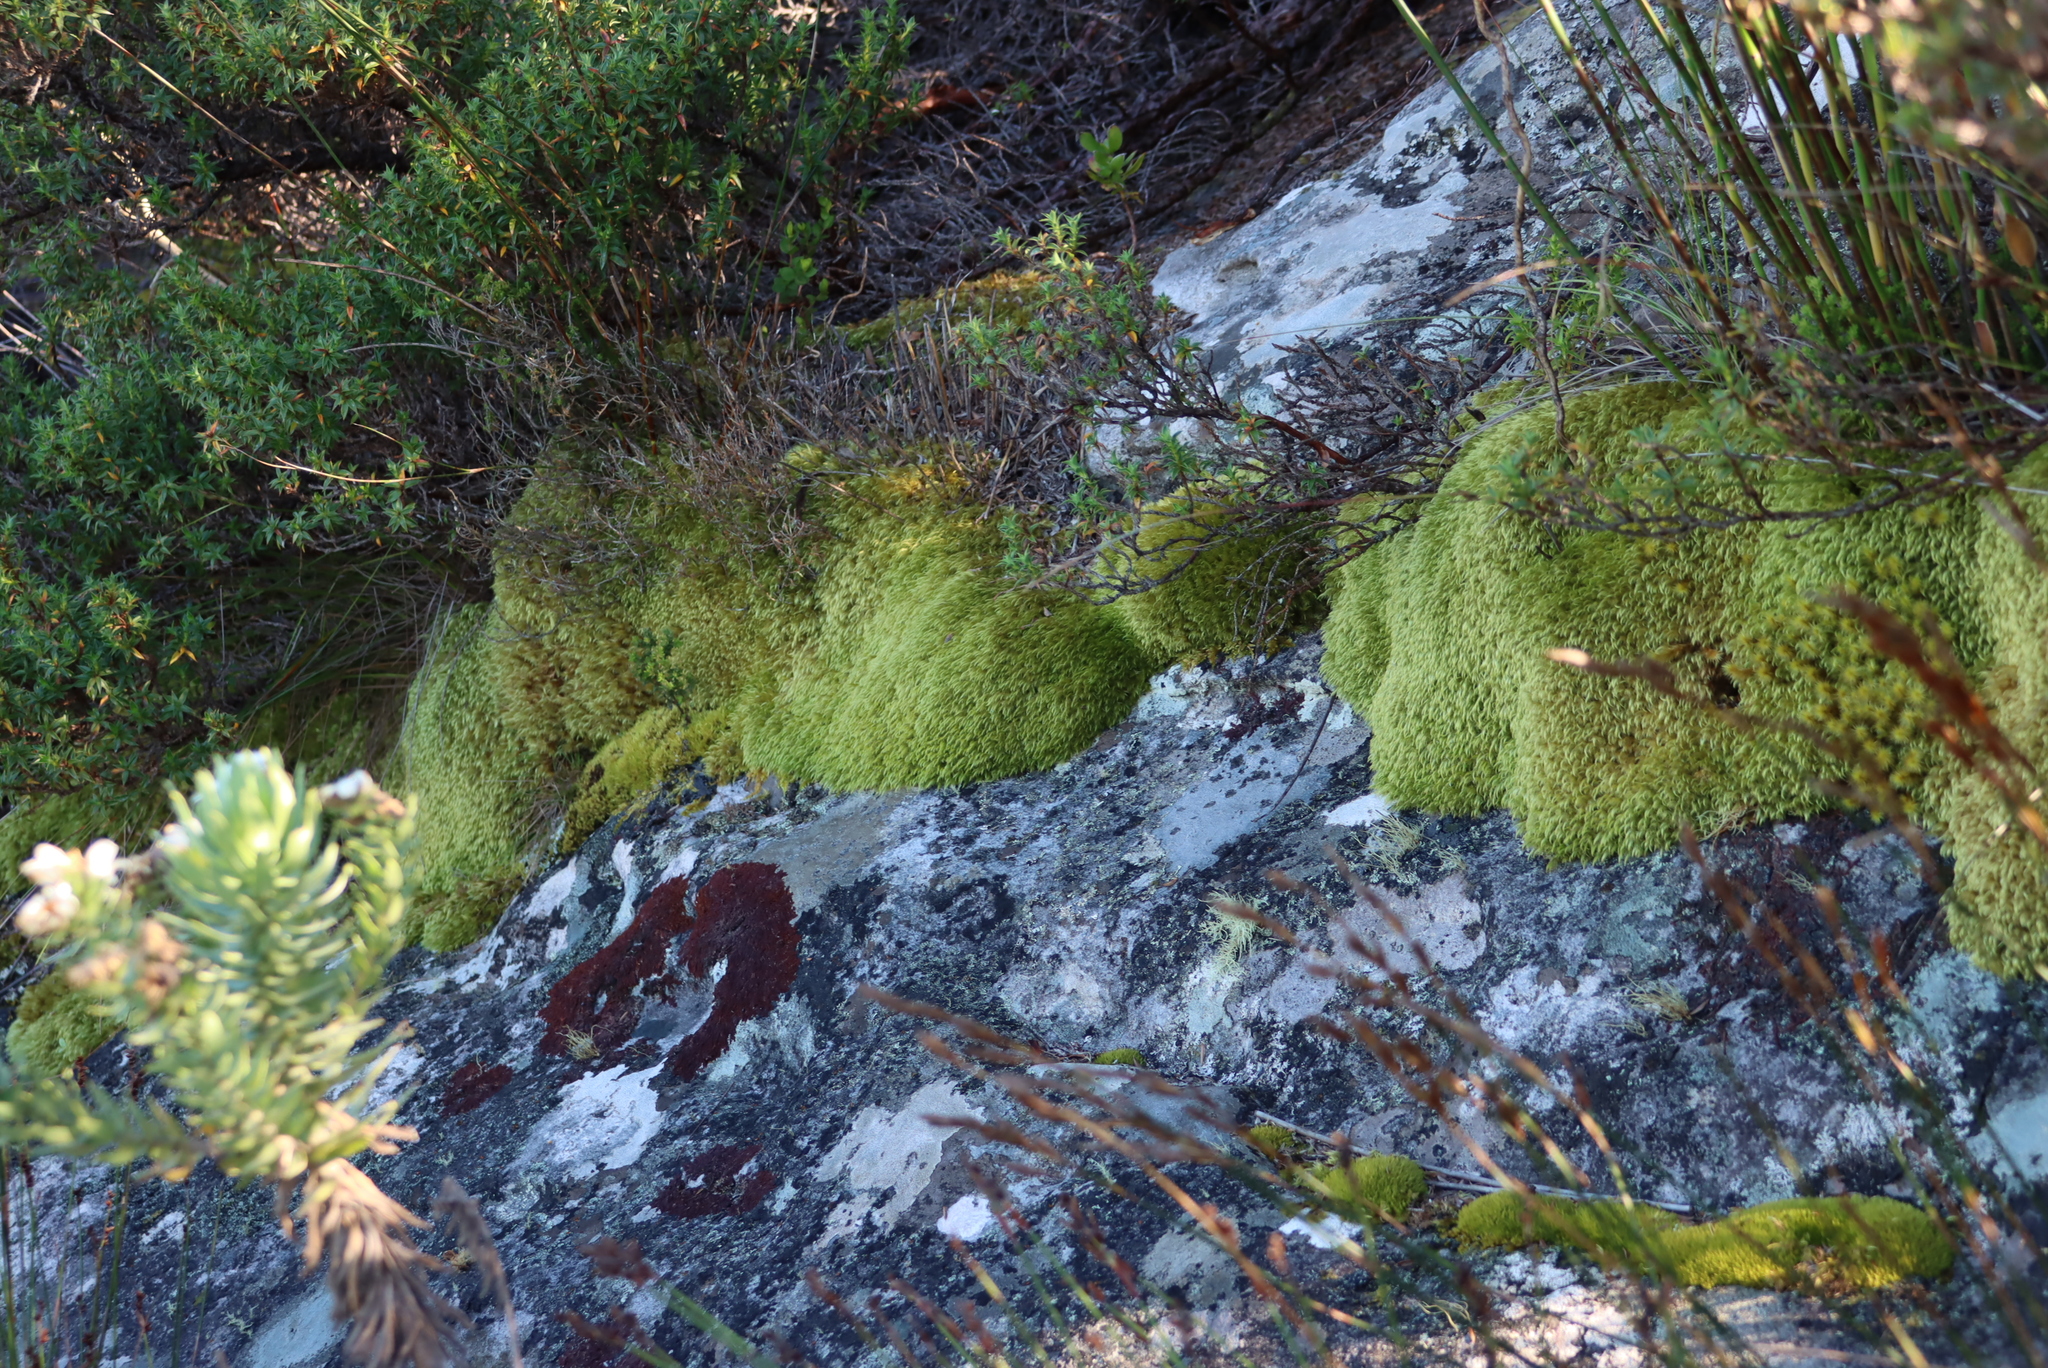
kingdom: Plantae
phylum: Bryophyta
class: Bryopsida
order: Dicranales
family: Hypodontiaceae
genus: Hypodontium
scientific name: Hypodontium pomiforme
